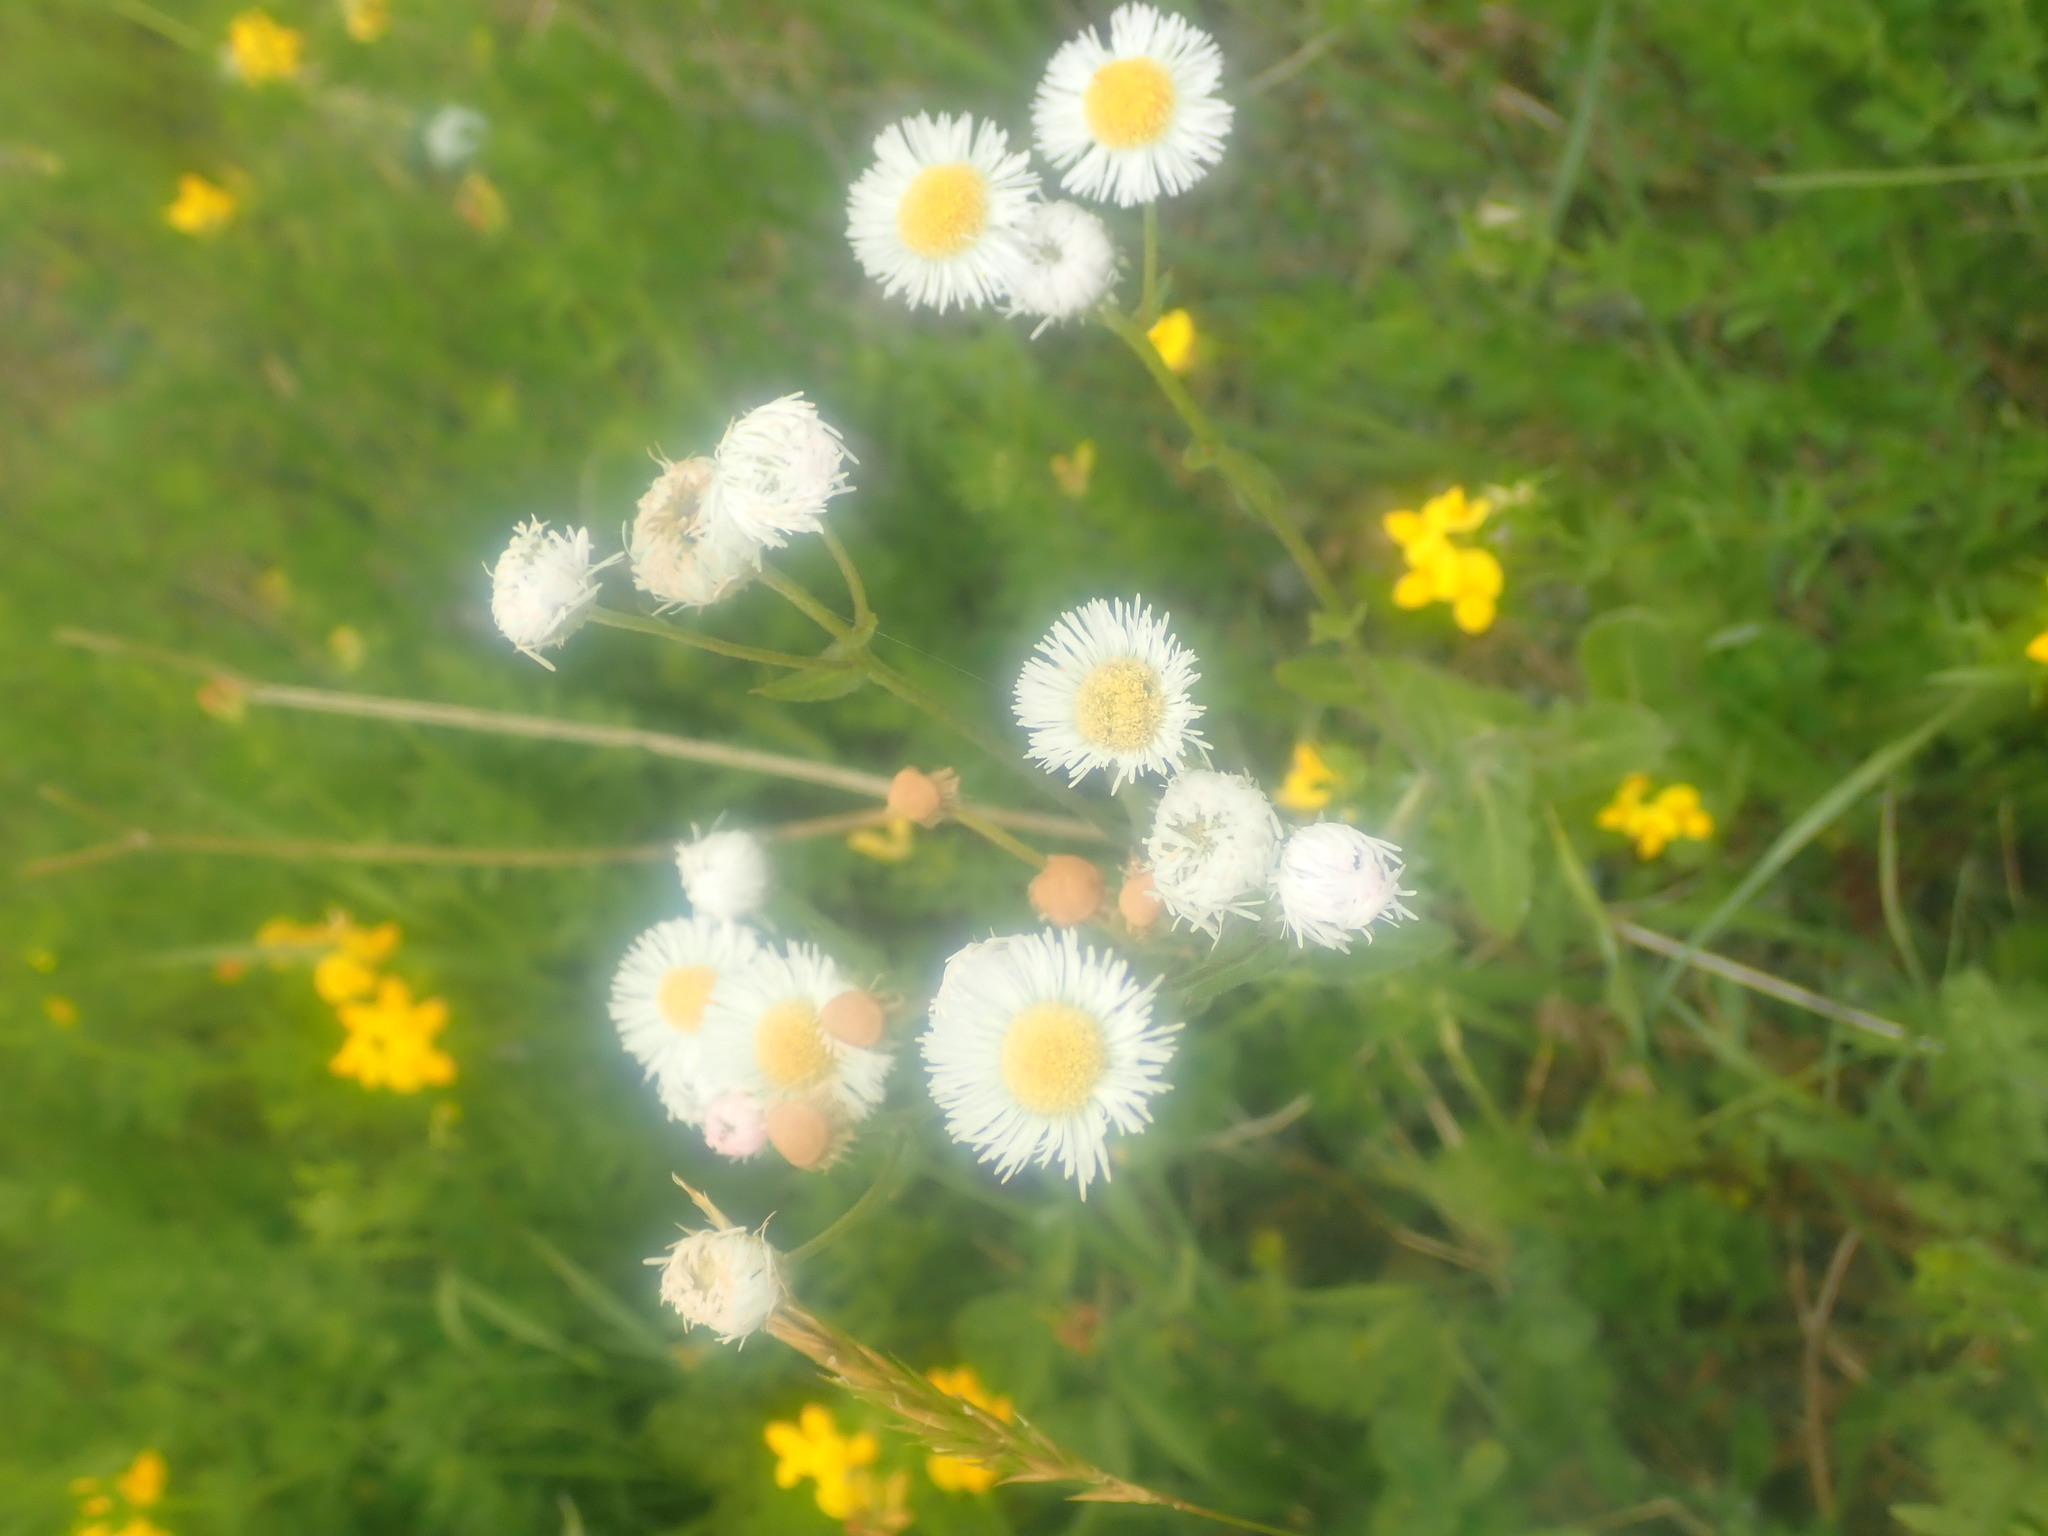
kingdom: Plantae
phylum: Tracheophyta
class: Magnoliopsida
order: Asterales
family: Asteraceae
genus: Erigeron
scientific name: Erigeron philadelphicus
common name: Robin's-plantain
